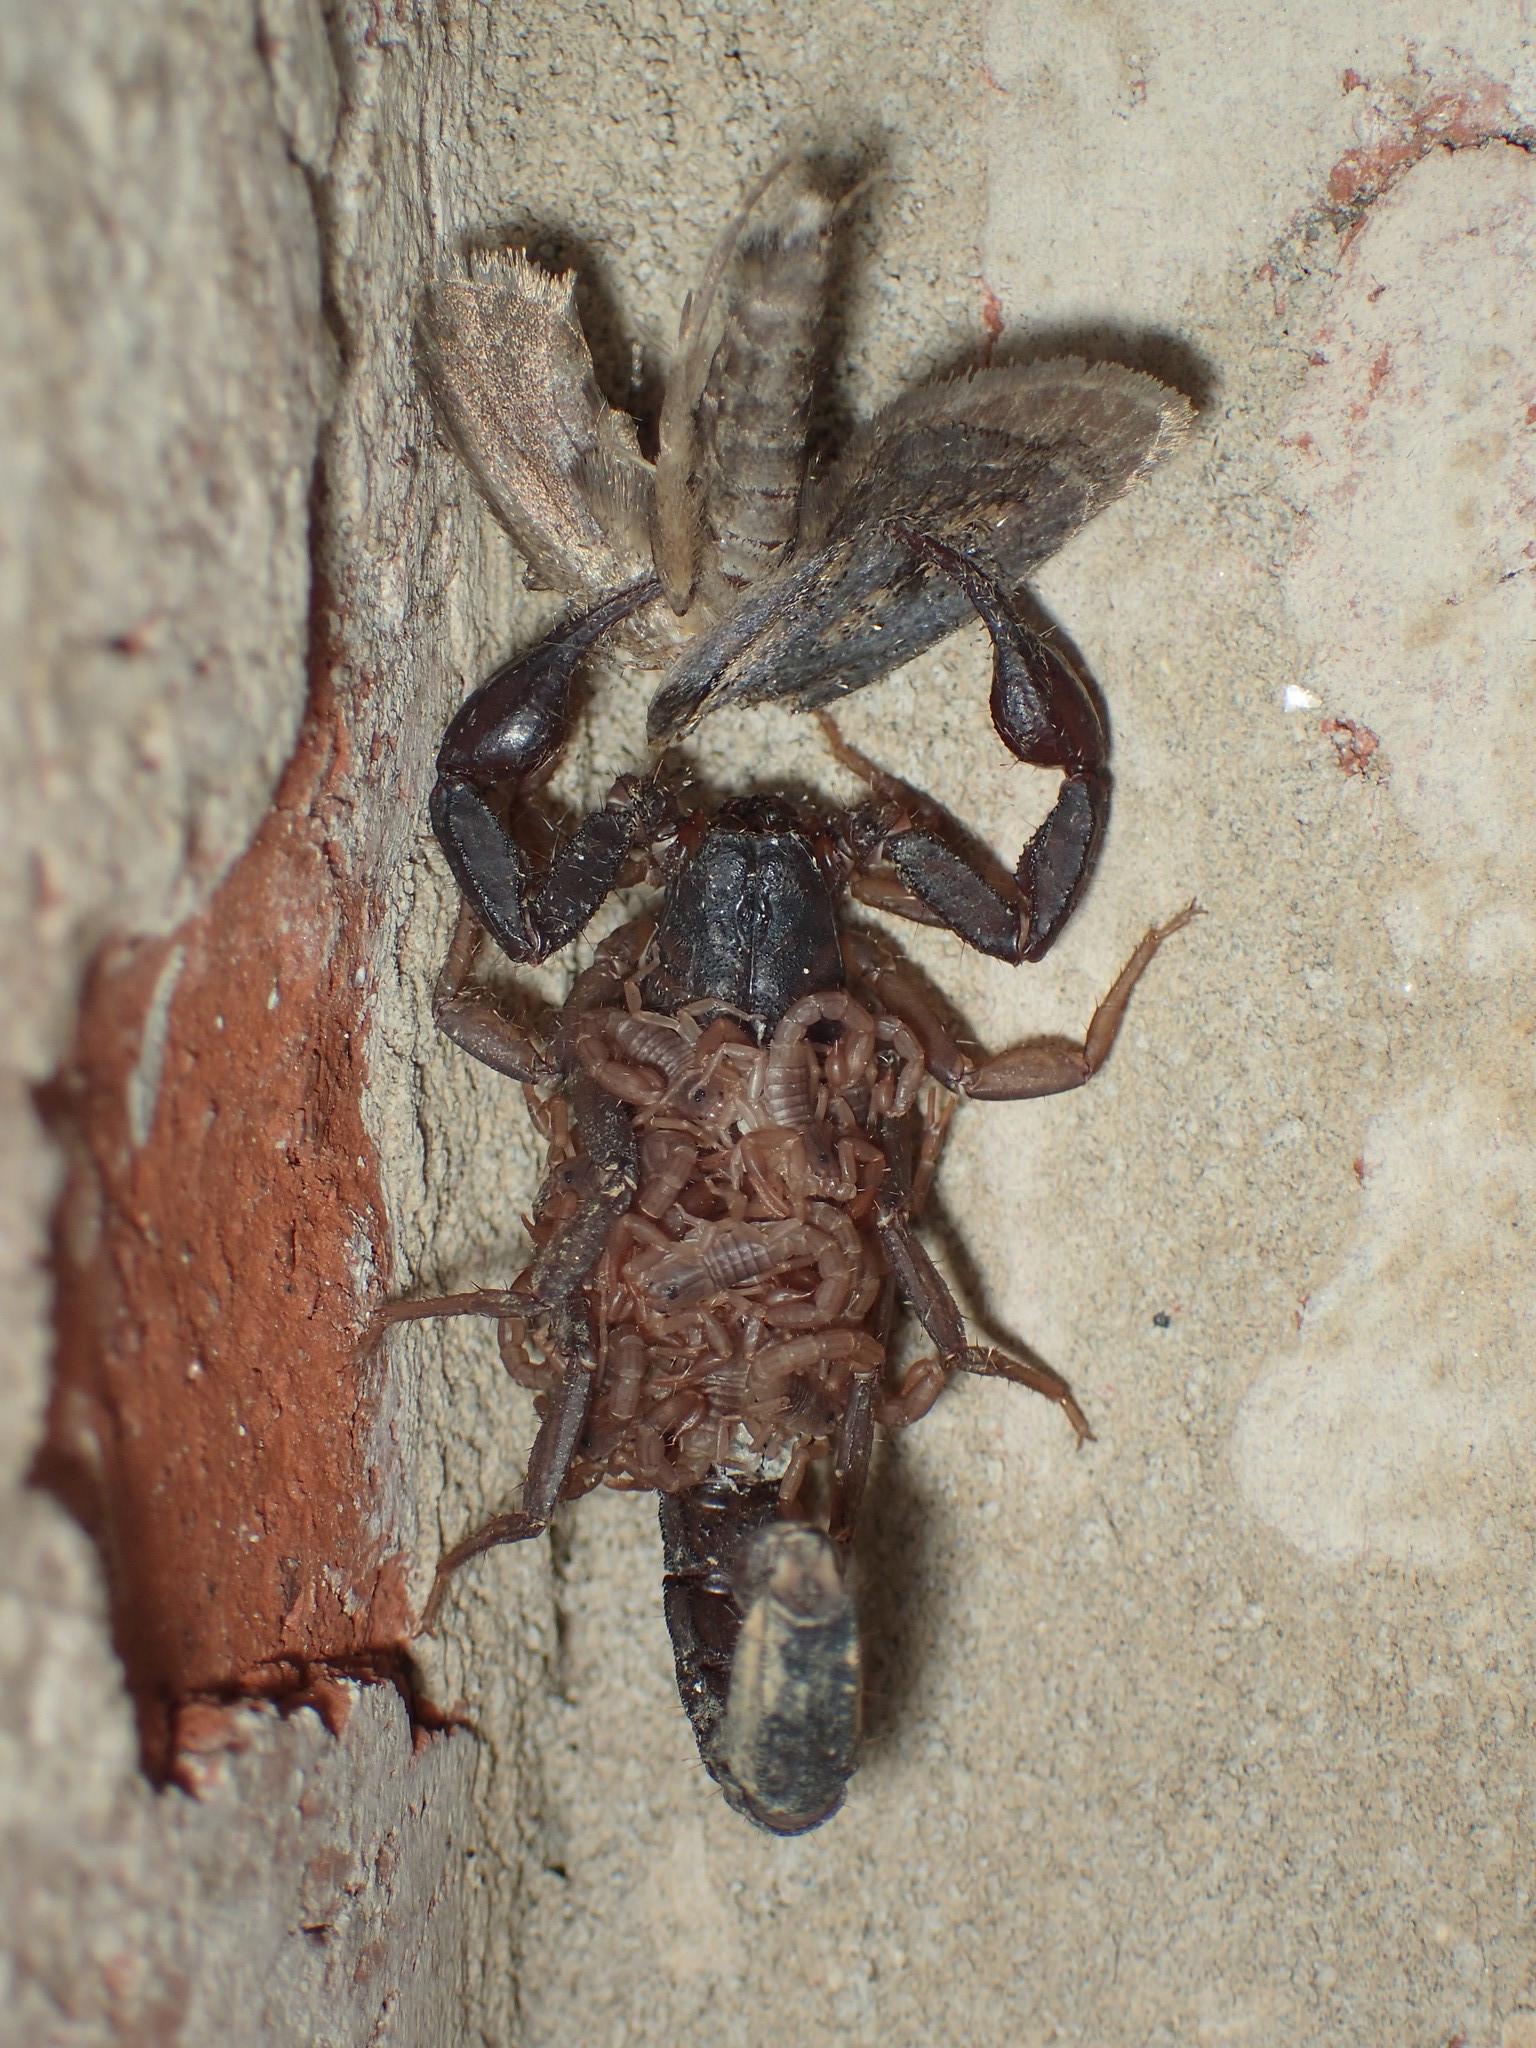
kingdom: Animalia
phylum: Arthropoda
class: Arachnida
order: Scorpiones
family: Vaejovidae
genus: Vaejovis
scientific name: Vaejovis carolinianus
